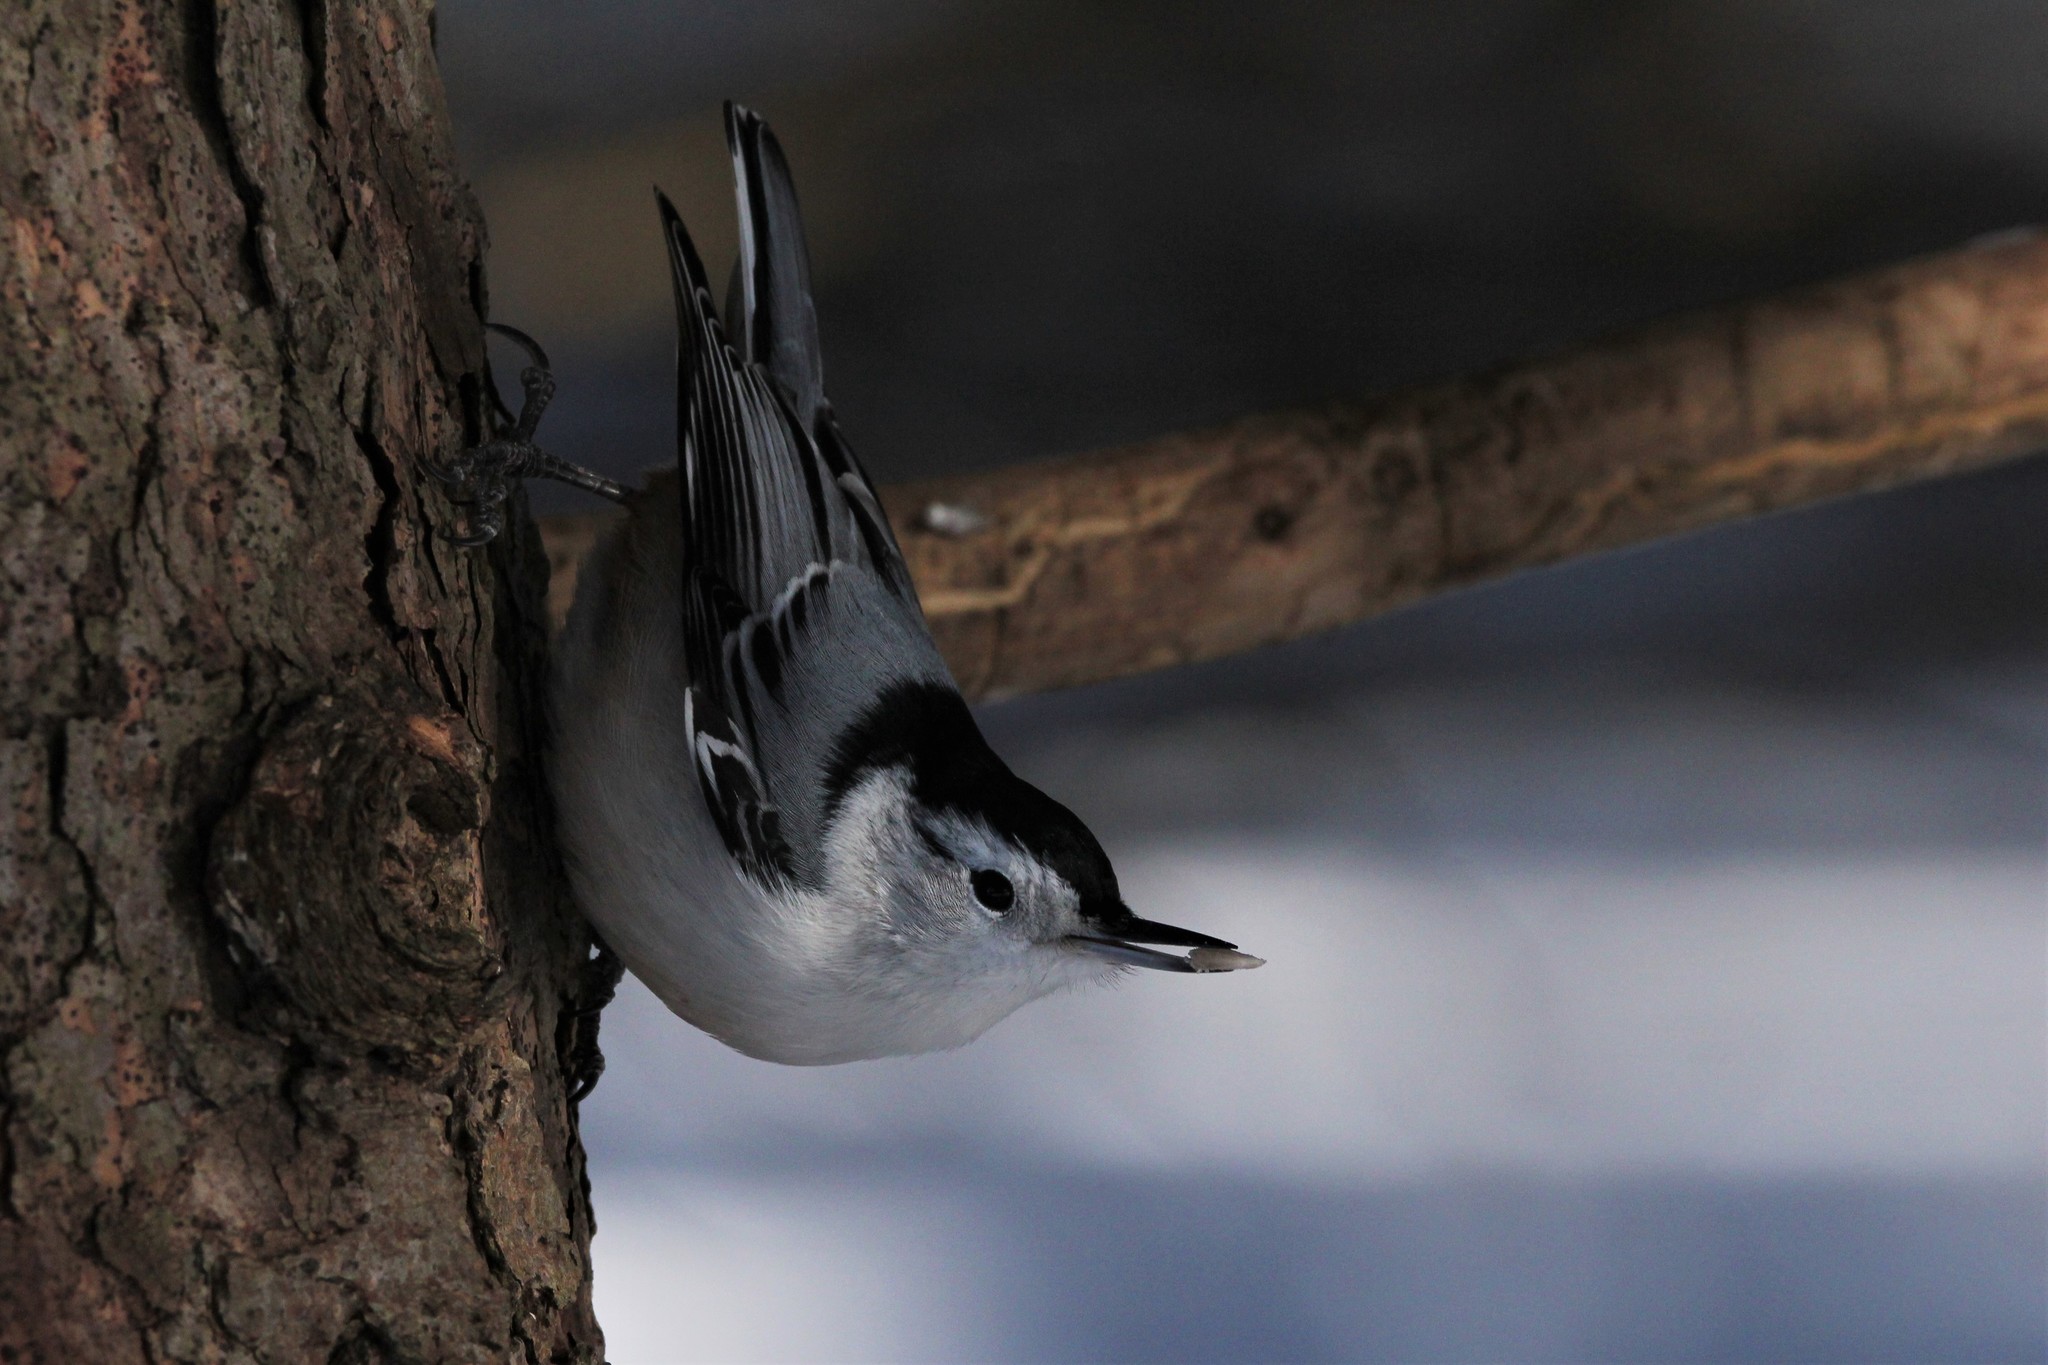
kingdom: Animalia
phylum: Chordata
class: Aves
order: Passeriformes
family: Sittidae
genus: Sitta
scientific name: Sitta carolinensis
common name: White-breasted nuthatch
